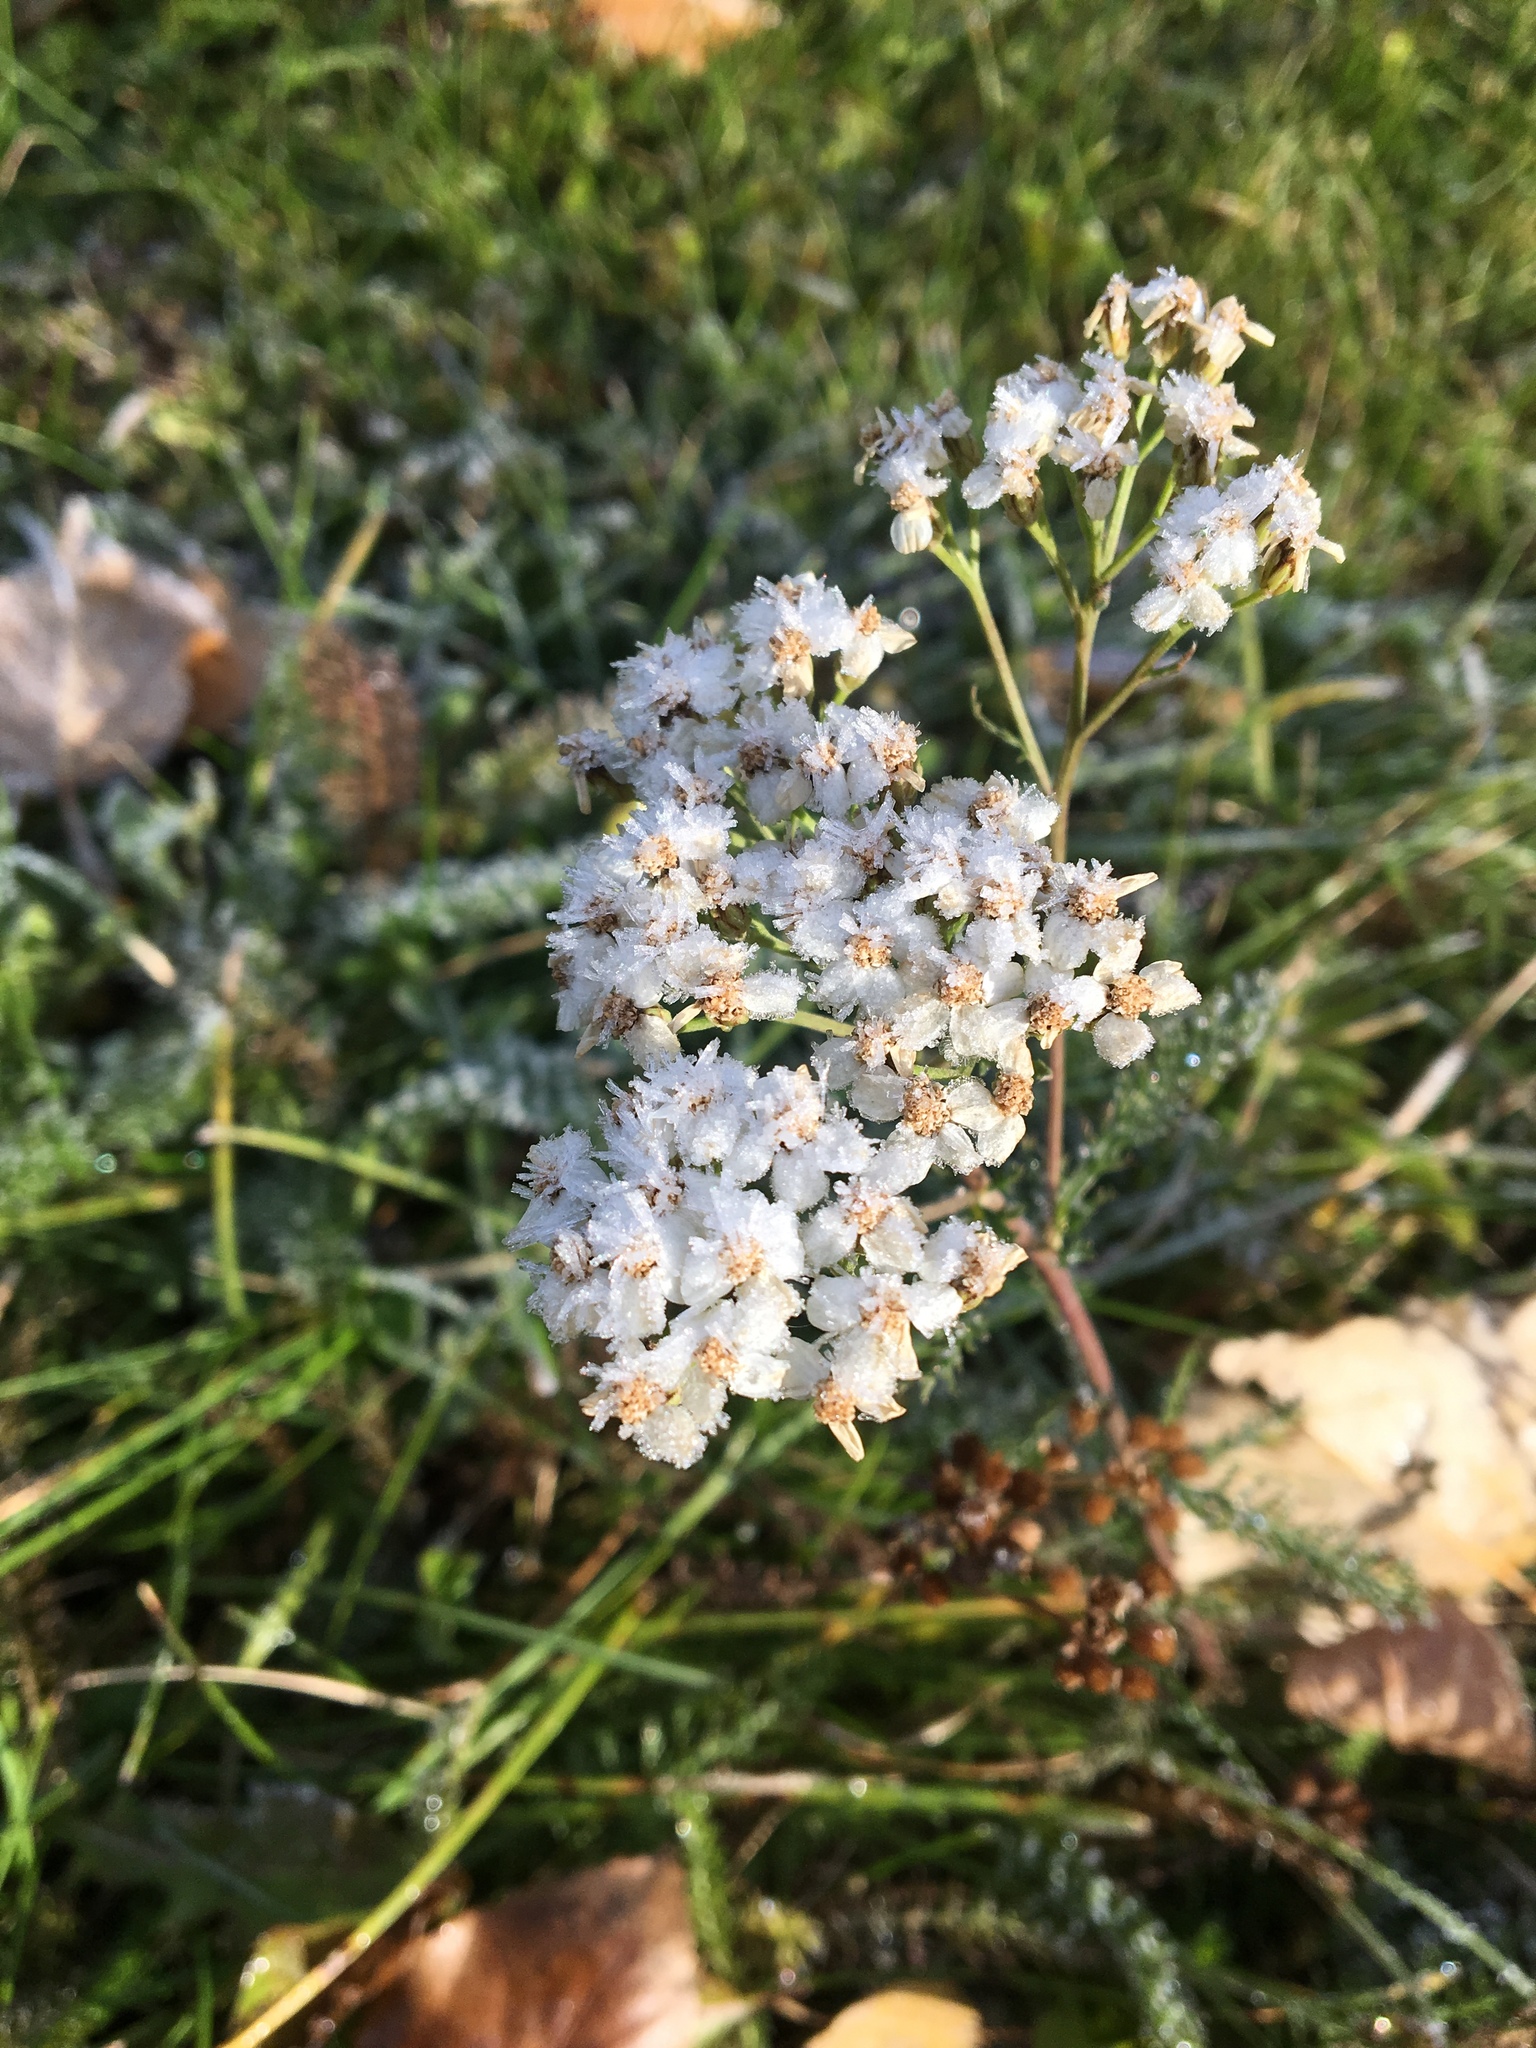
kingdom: Plantae
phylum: Tracheophyta
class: Magnoliopsida
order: Asterales
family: Asteraceae
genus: Achillea
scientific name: Achillea millefolium
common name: Yarrow
